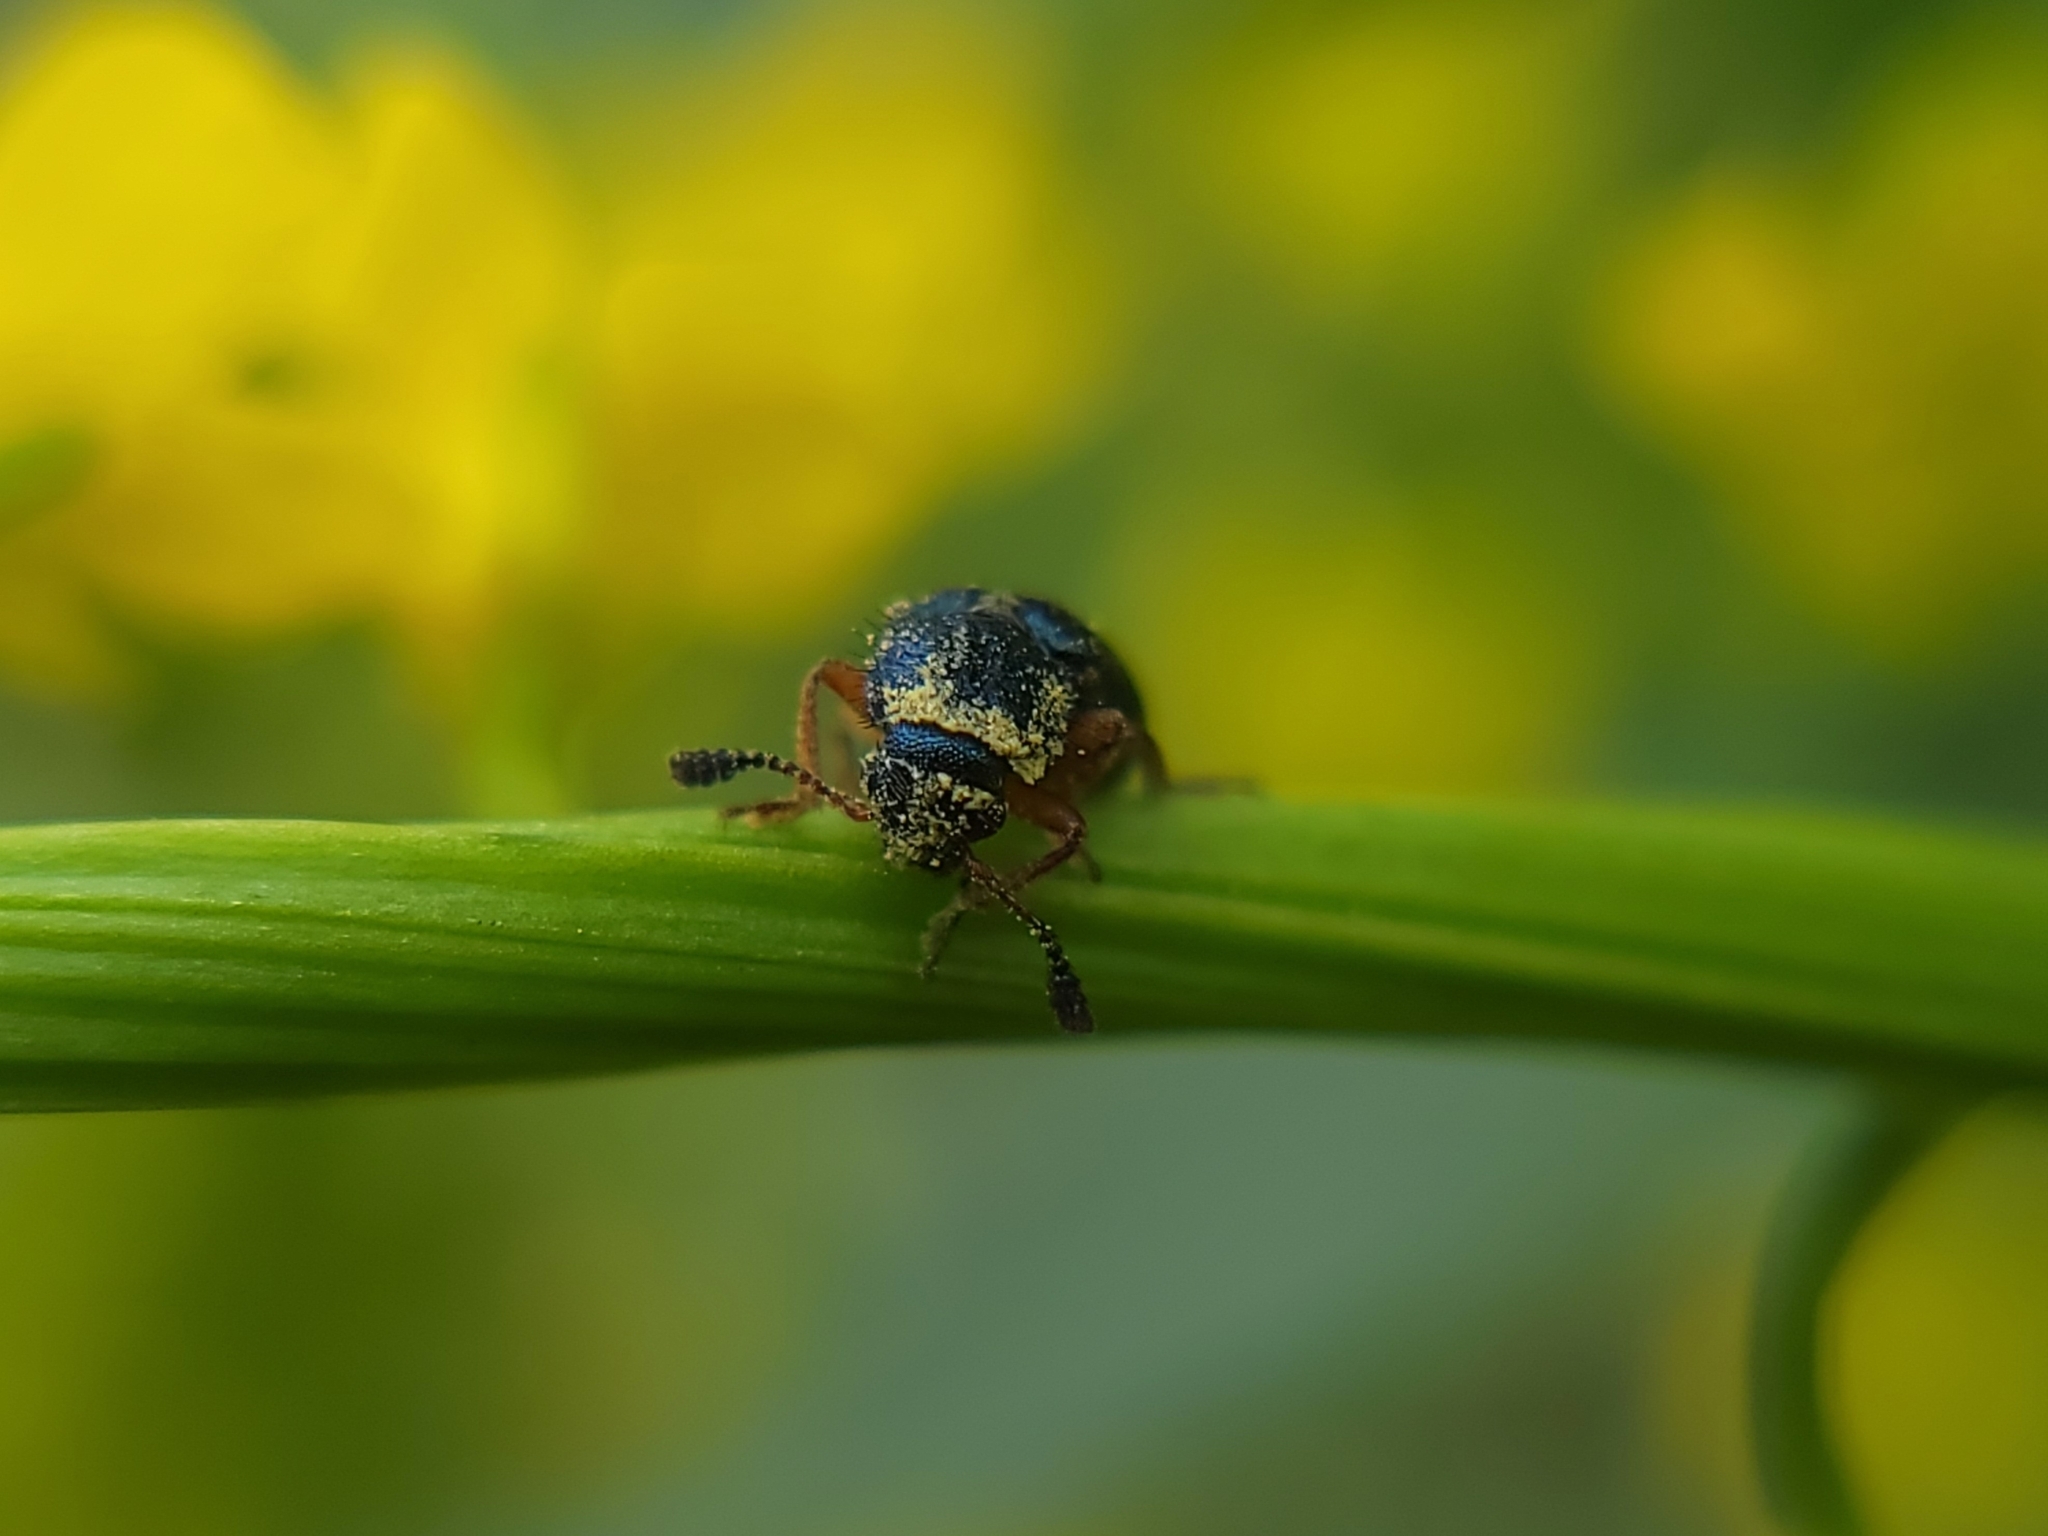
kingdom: Animalia
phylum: Arthropoda
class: Insecta
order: Coleoptera
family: Cleridae
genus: Necrobia
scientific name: Necrobia rufipes
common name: Red-legged ham beetle
